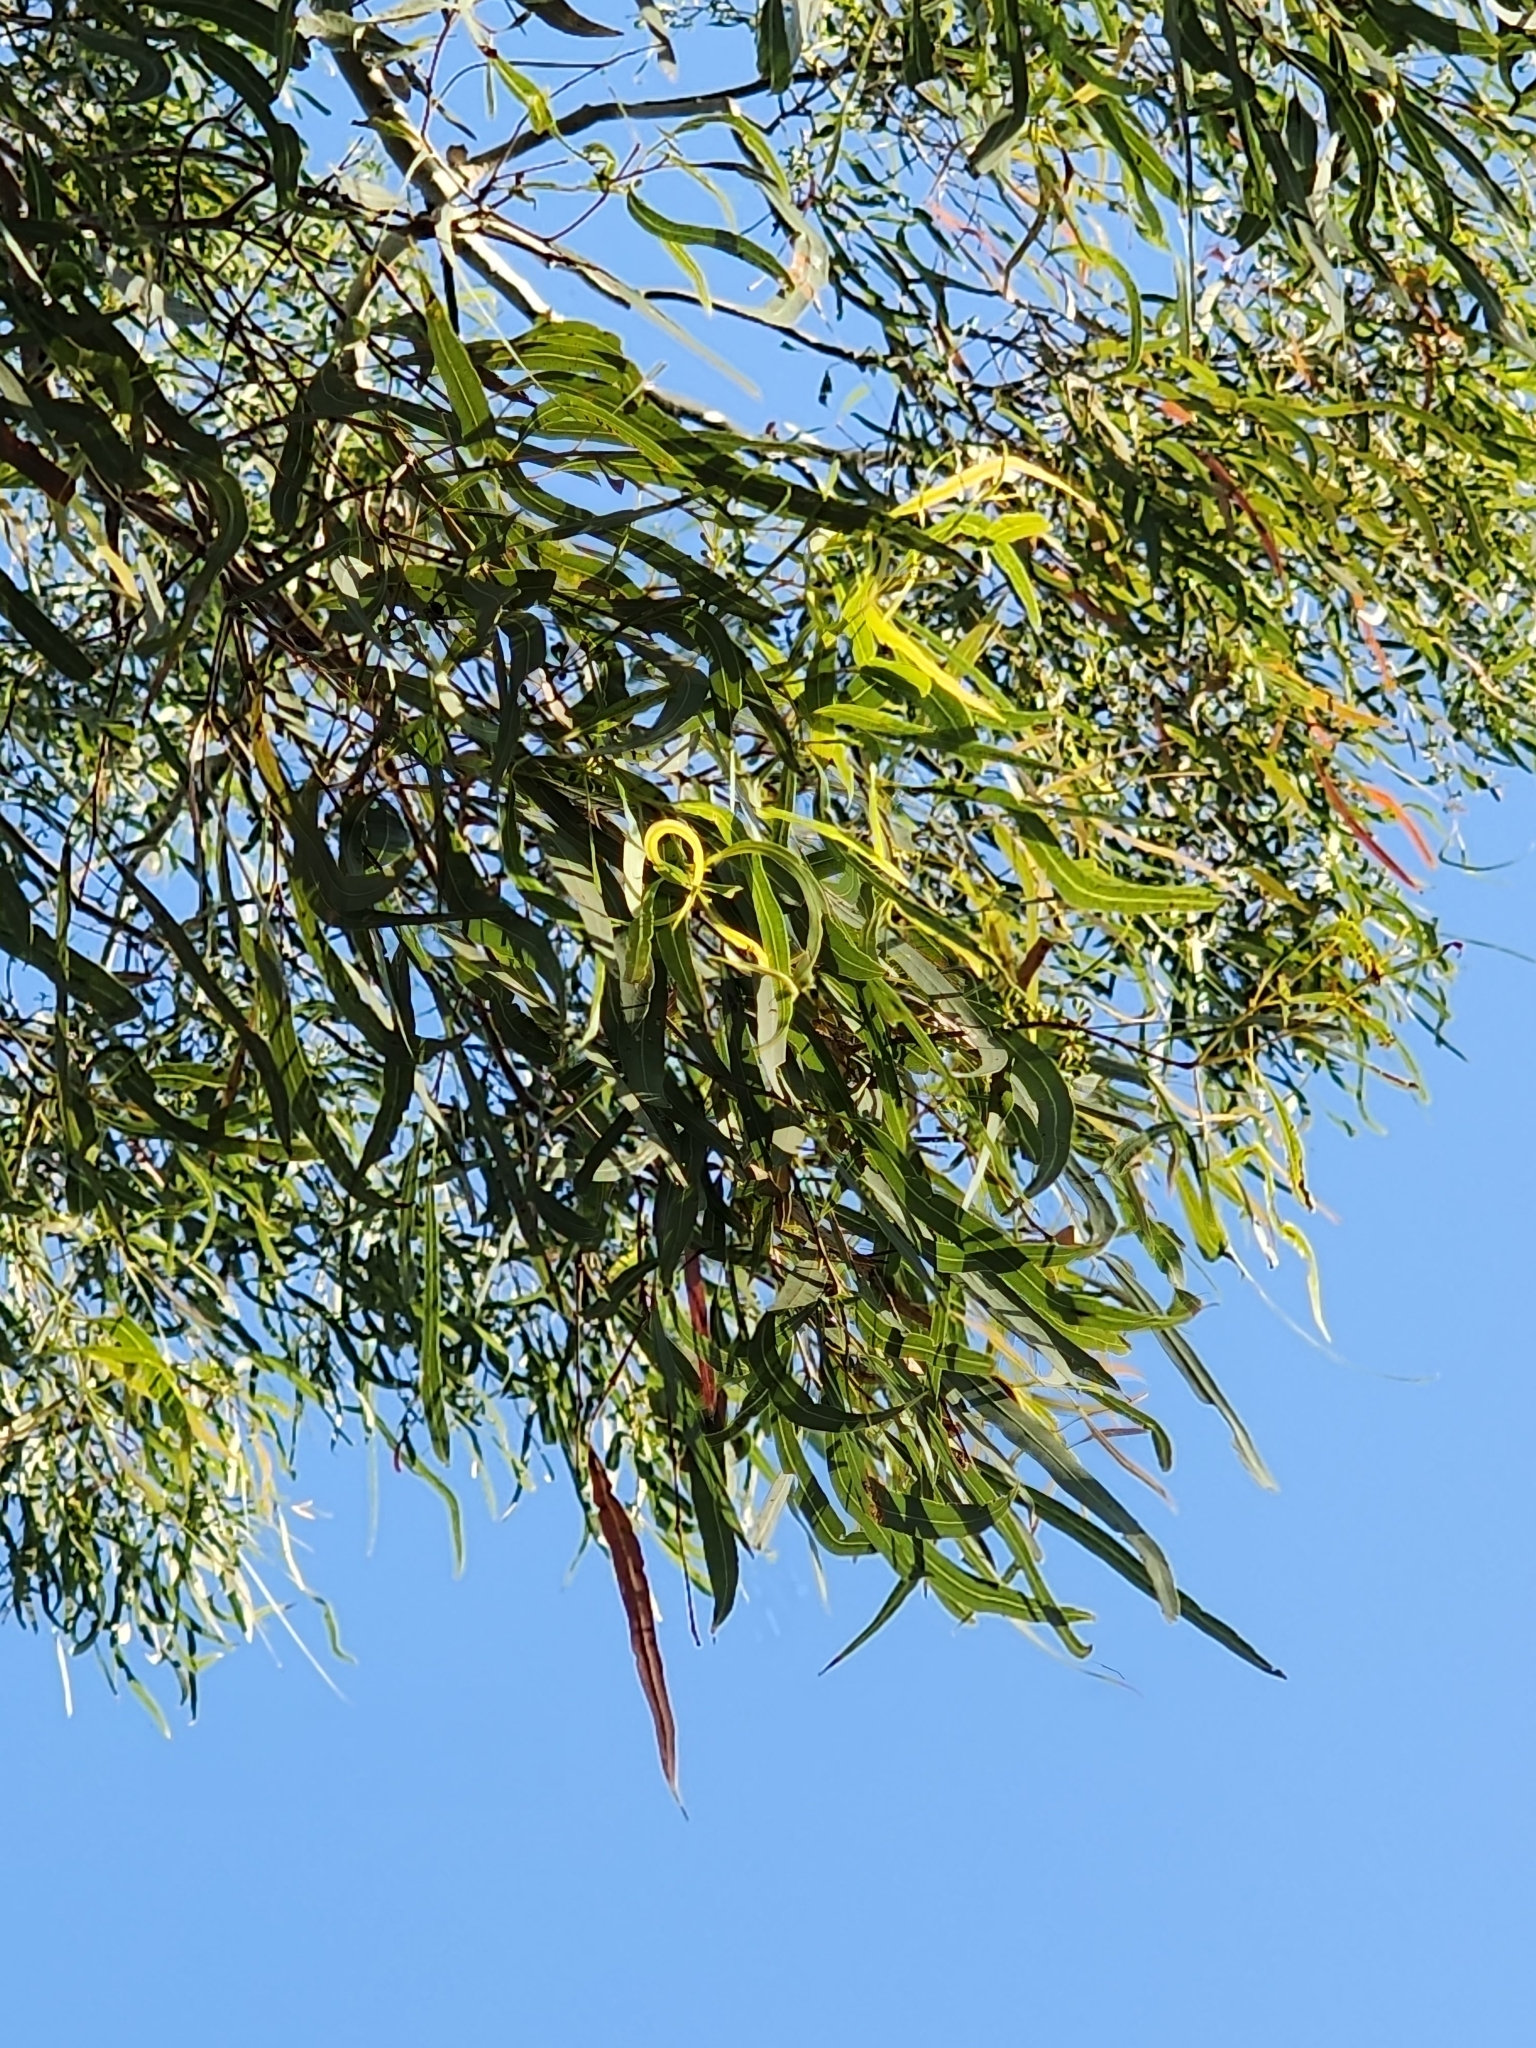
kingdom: Plantae
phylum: Tracheophyta
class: Magnoliopsida
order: Myrtales
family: Myrtaceae
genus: Corymbia
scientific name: Corymbia tessellaris
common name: Carbeen
